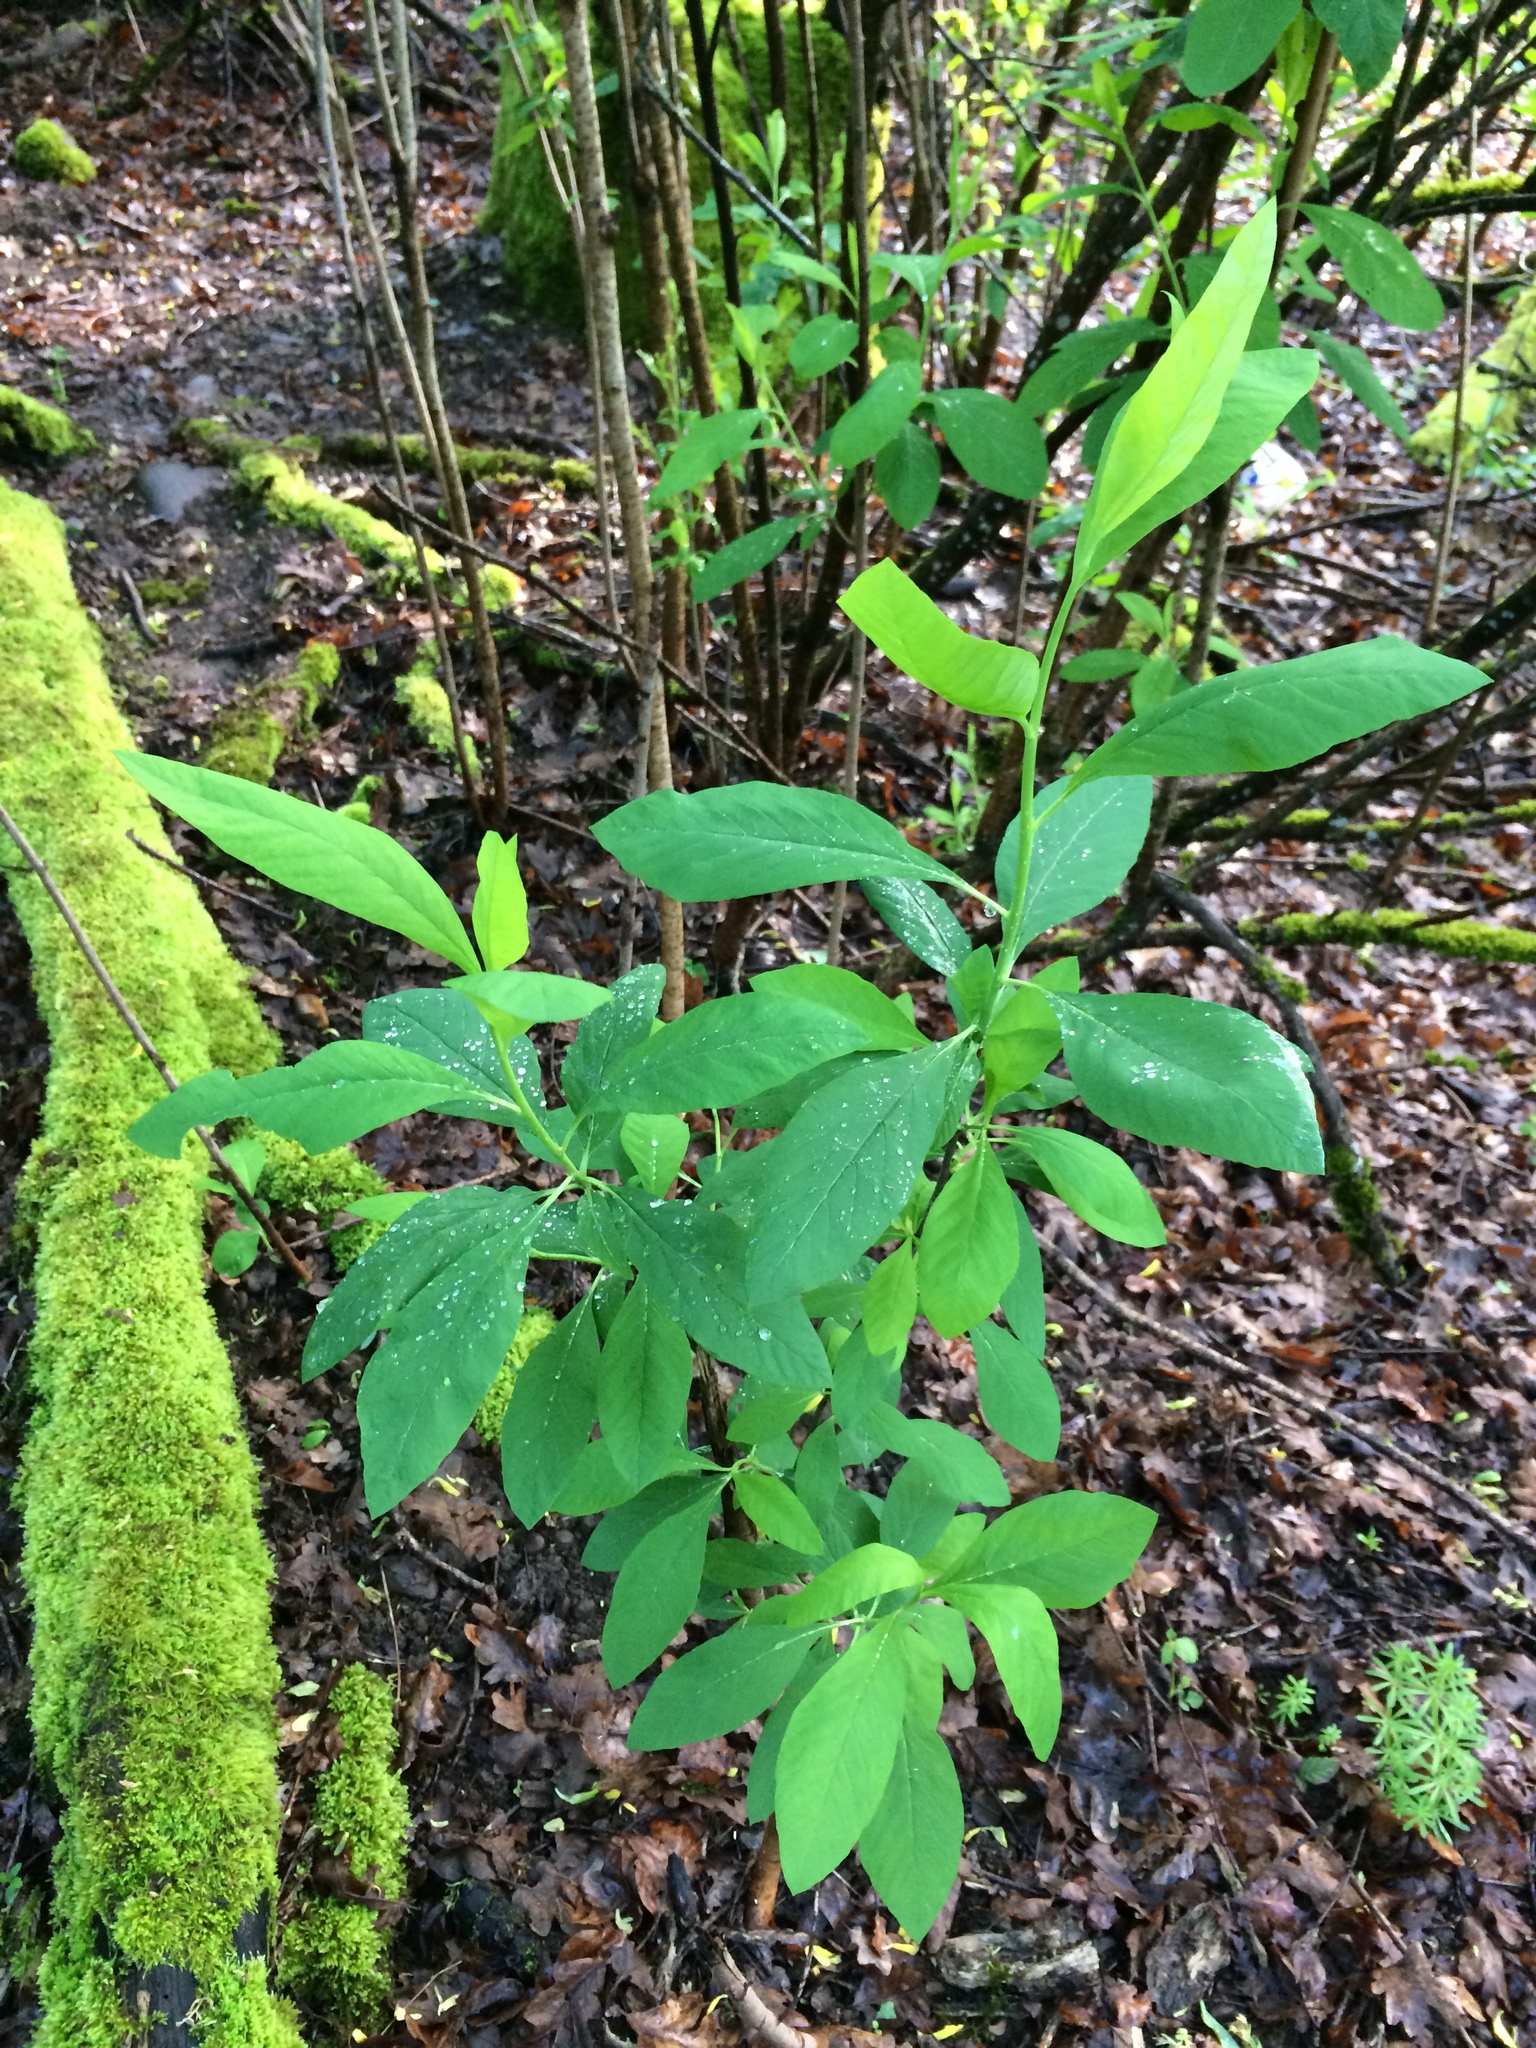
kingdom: Plantae
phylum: Tracheophyta
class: Magnoliopsida
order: Rosales
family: Rosaceae
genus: Oemleria
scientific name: Oemleria cerasiformis
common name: Osoberry
